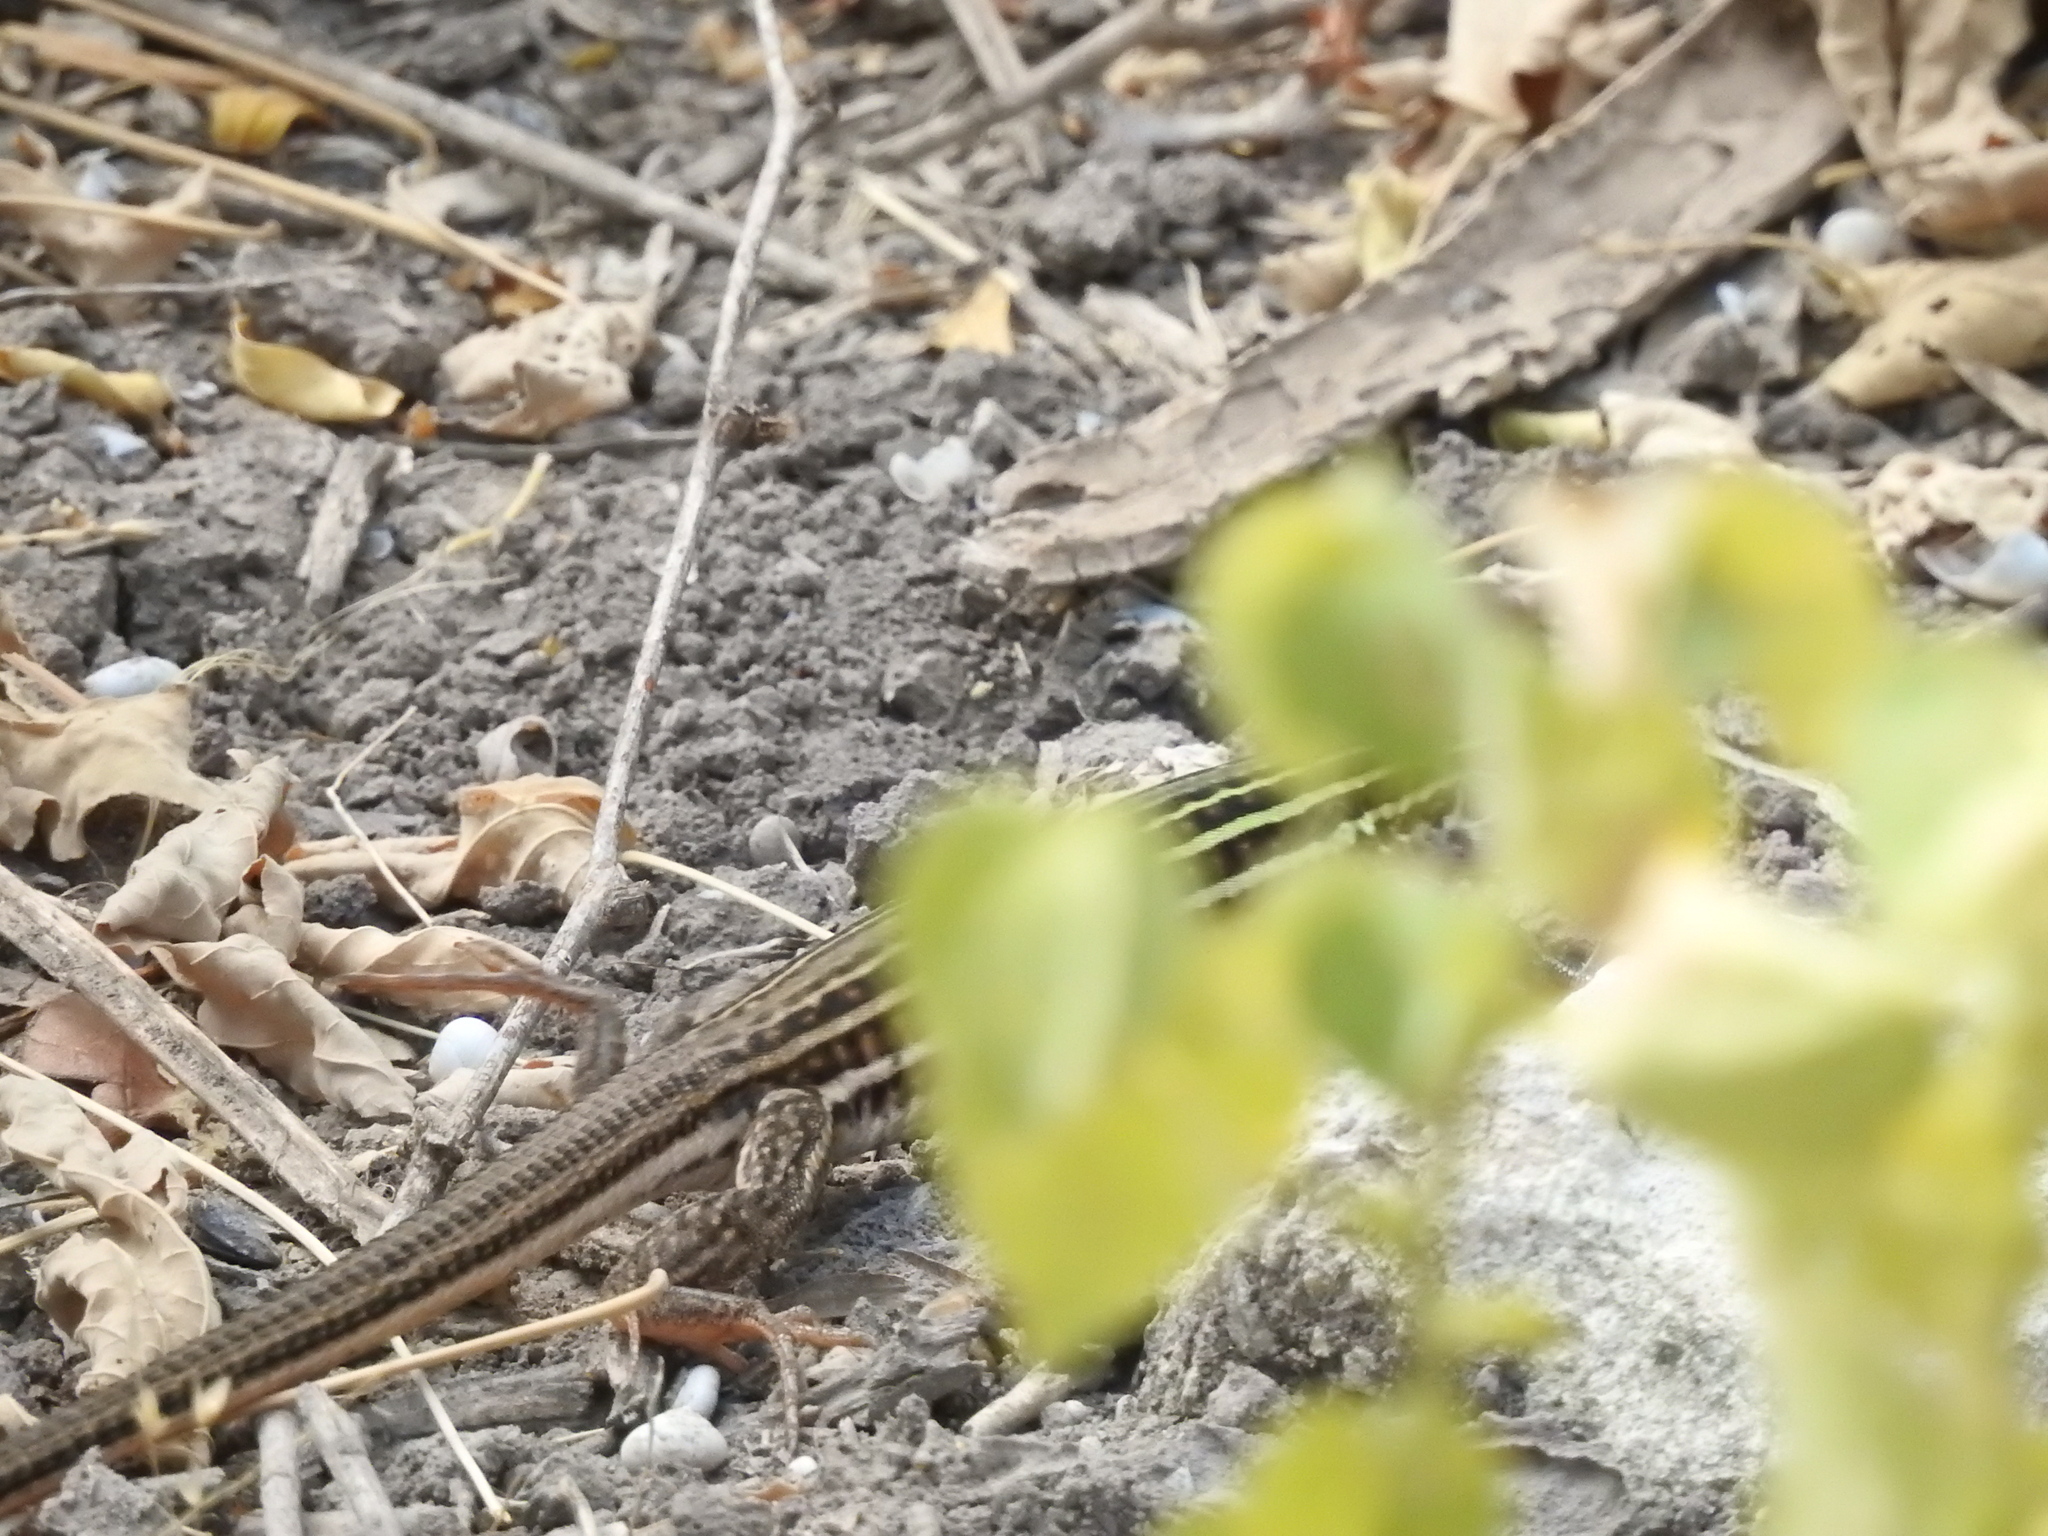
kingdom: Animalia
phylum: Chordata
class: Squamata
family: Teiidae
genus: Aspidoscelis
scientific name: Aspidoscelis gularis
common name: Eastern spotted whiptail
